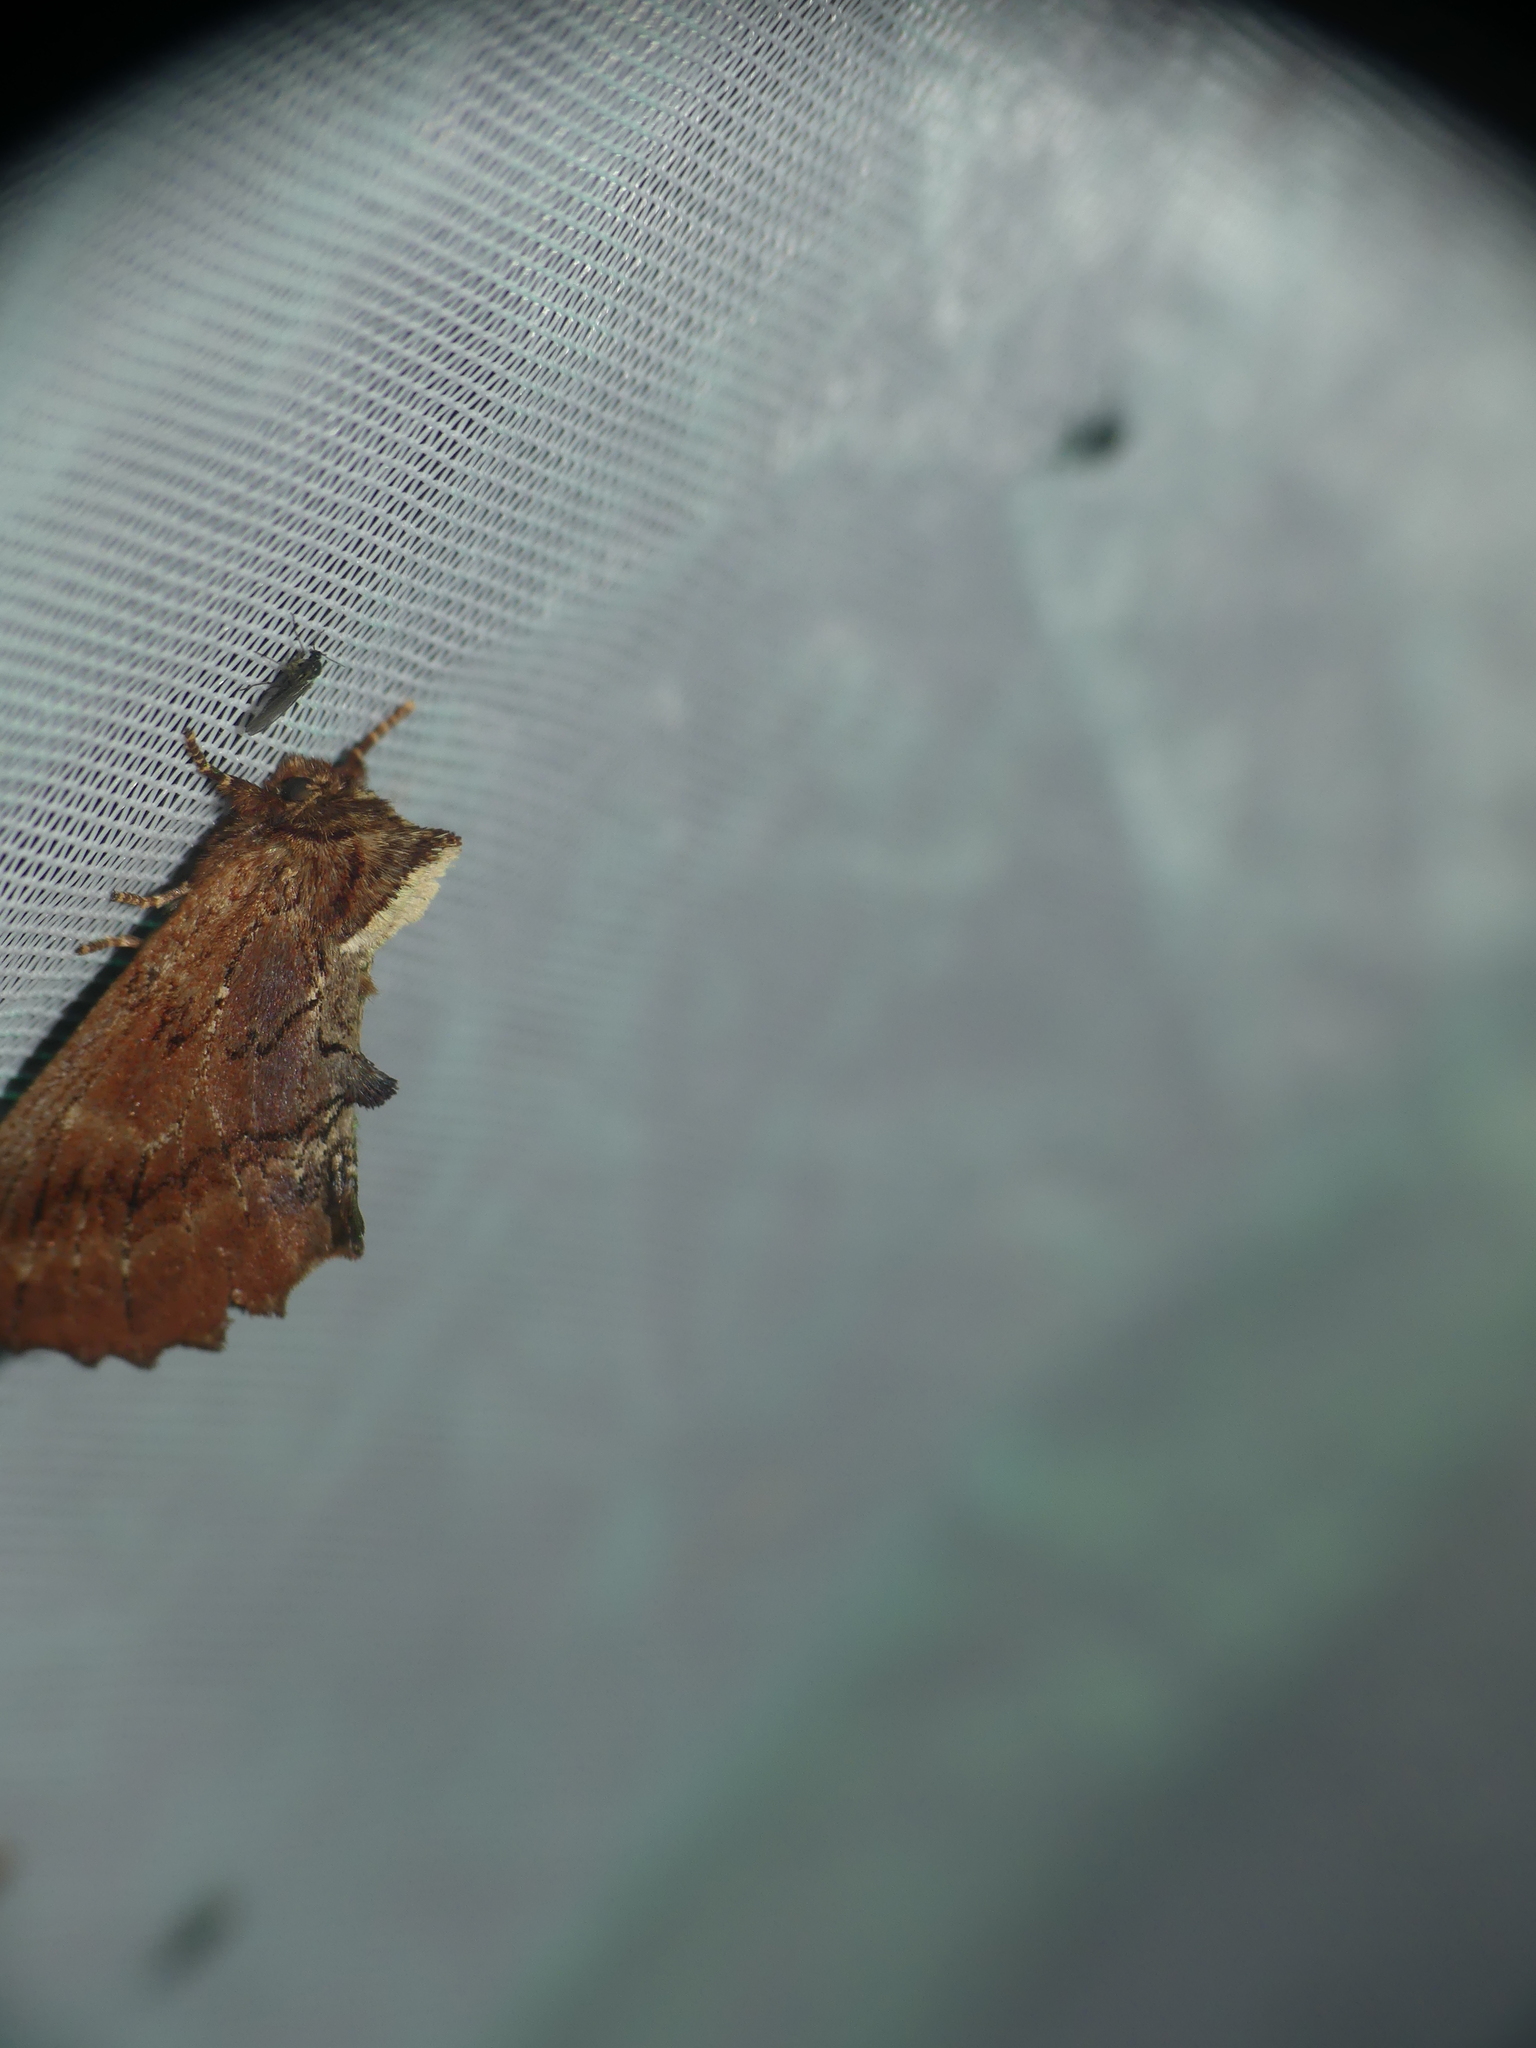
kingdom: Animalia
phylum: Arthropoda
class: Insecta
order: Lepidoptera
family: Notodontidae
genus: Ptilodon
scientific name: Ptilodon capucina
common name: Coxcomb prominent
